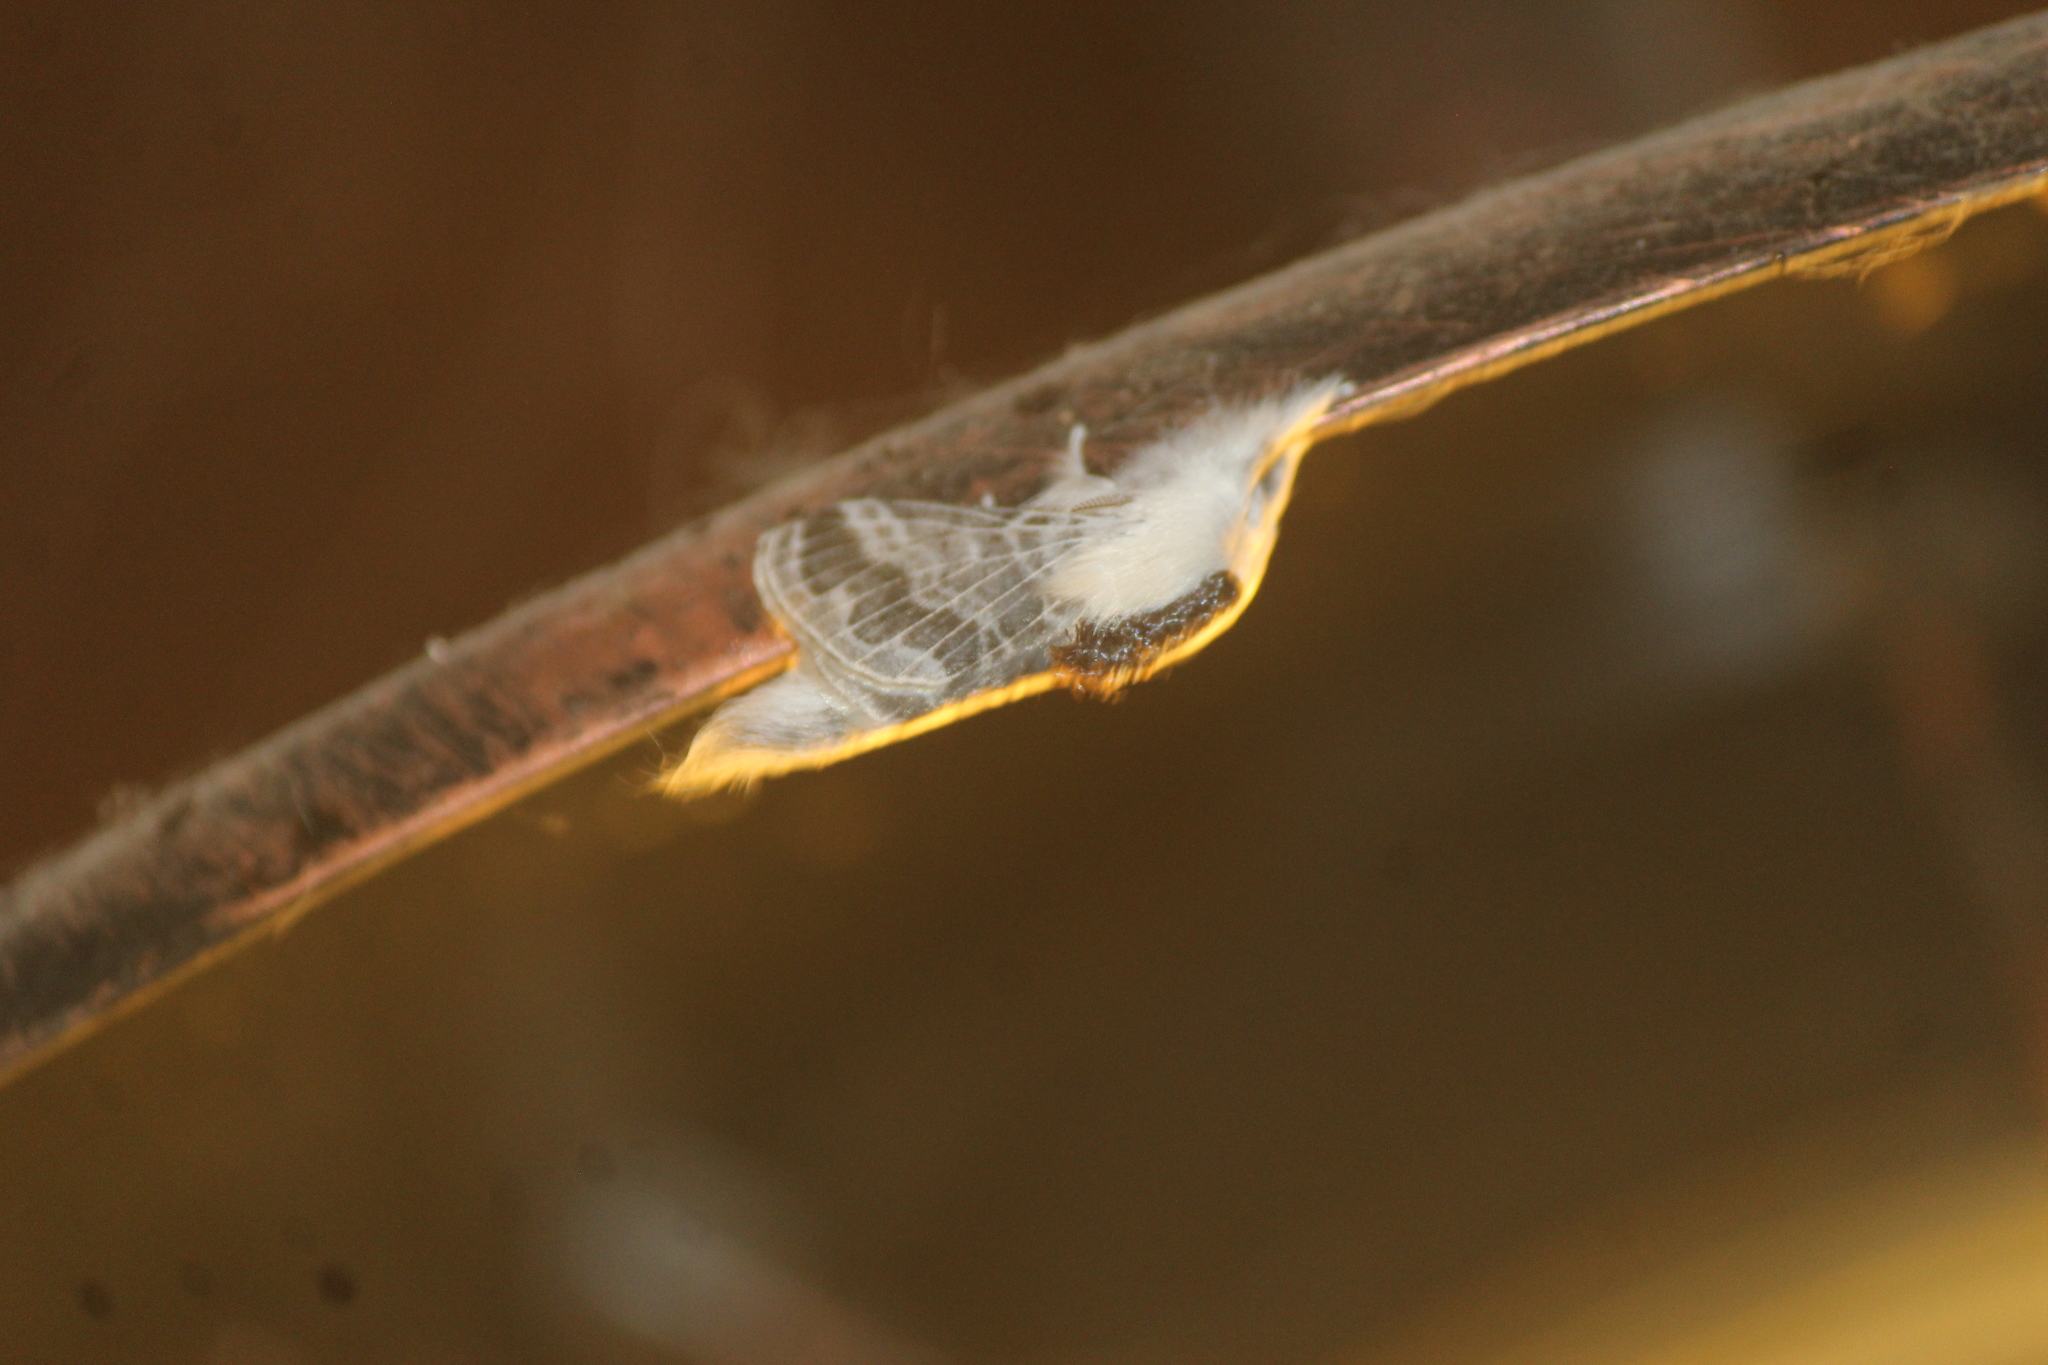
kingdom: Animalia
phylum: Arthropoda
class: Insecta
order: Lepidoptera
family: Lasiocampidae
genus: Tolype
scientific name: Tolype velleda
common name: Large tolype moth
